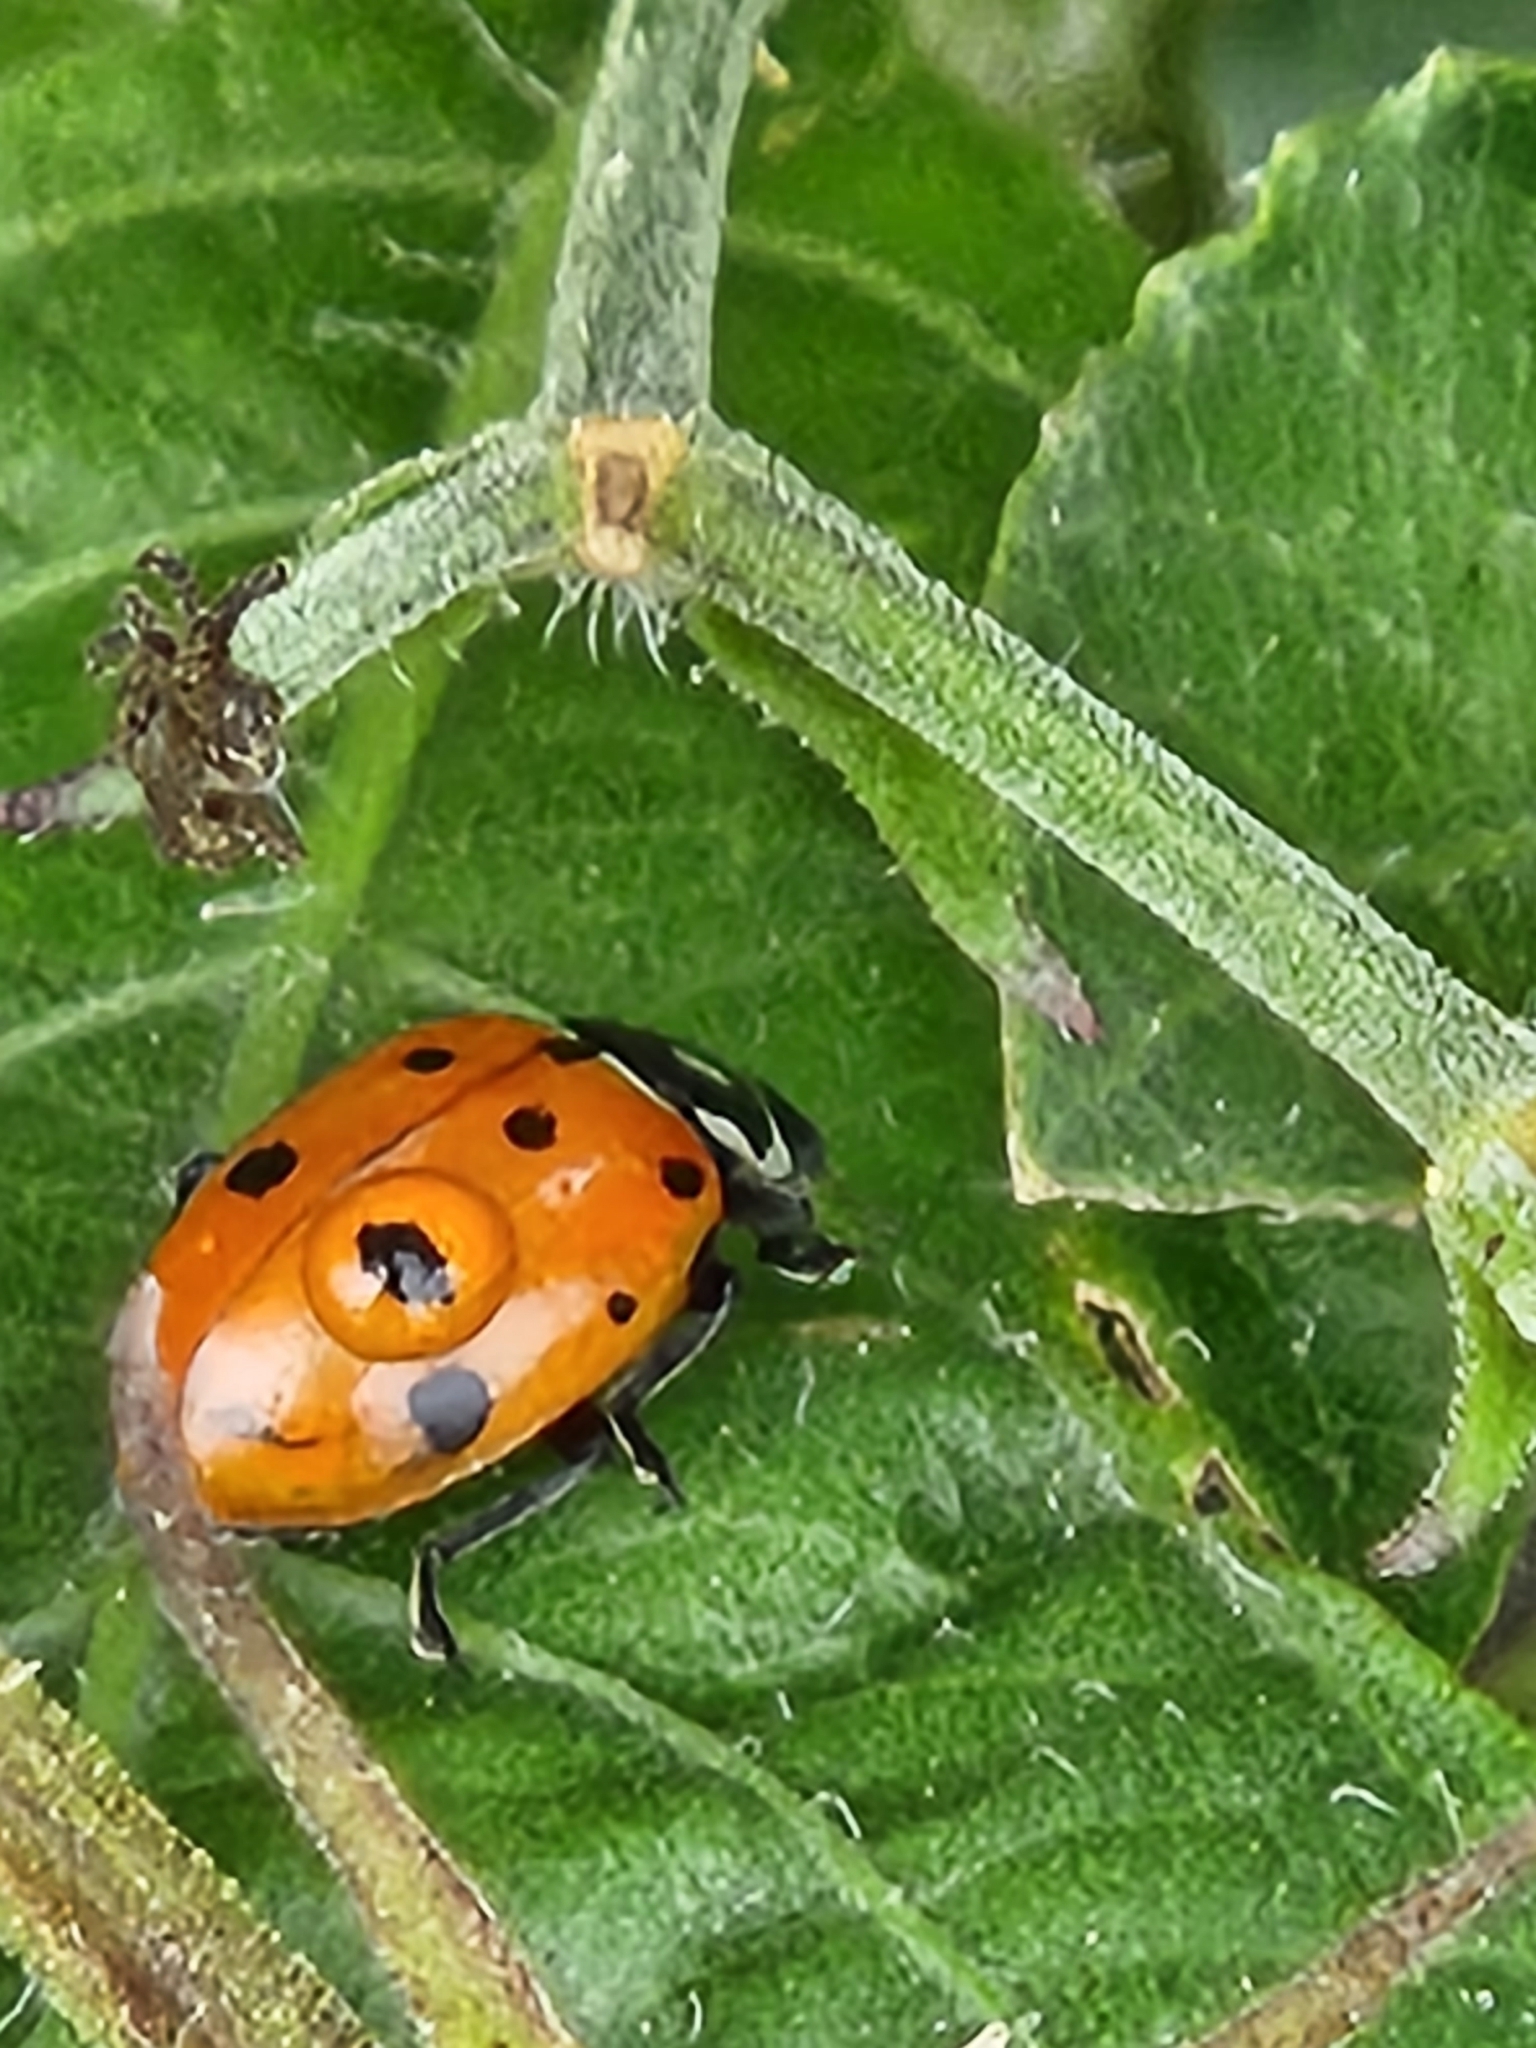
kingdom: Animalia
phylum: Arthropoda
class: Insecta
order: Coleoptera
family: Coccinellidae
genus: Hippodamia
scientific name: Hippodamia convergens
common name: Convergent lady beetle
